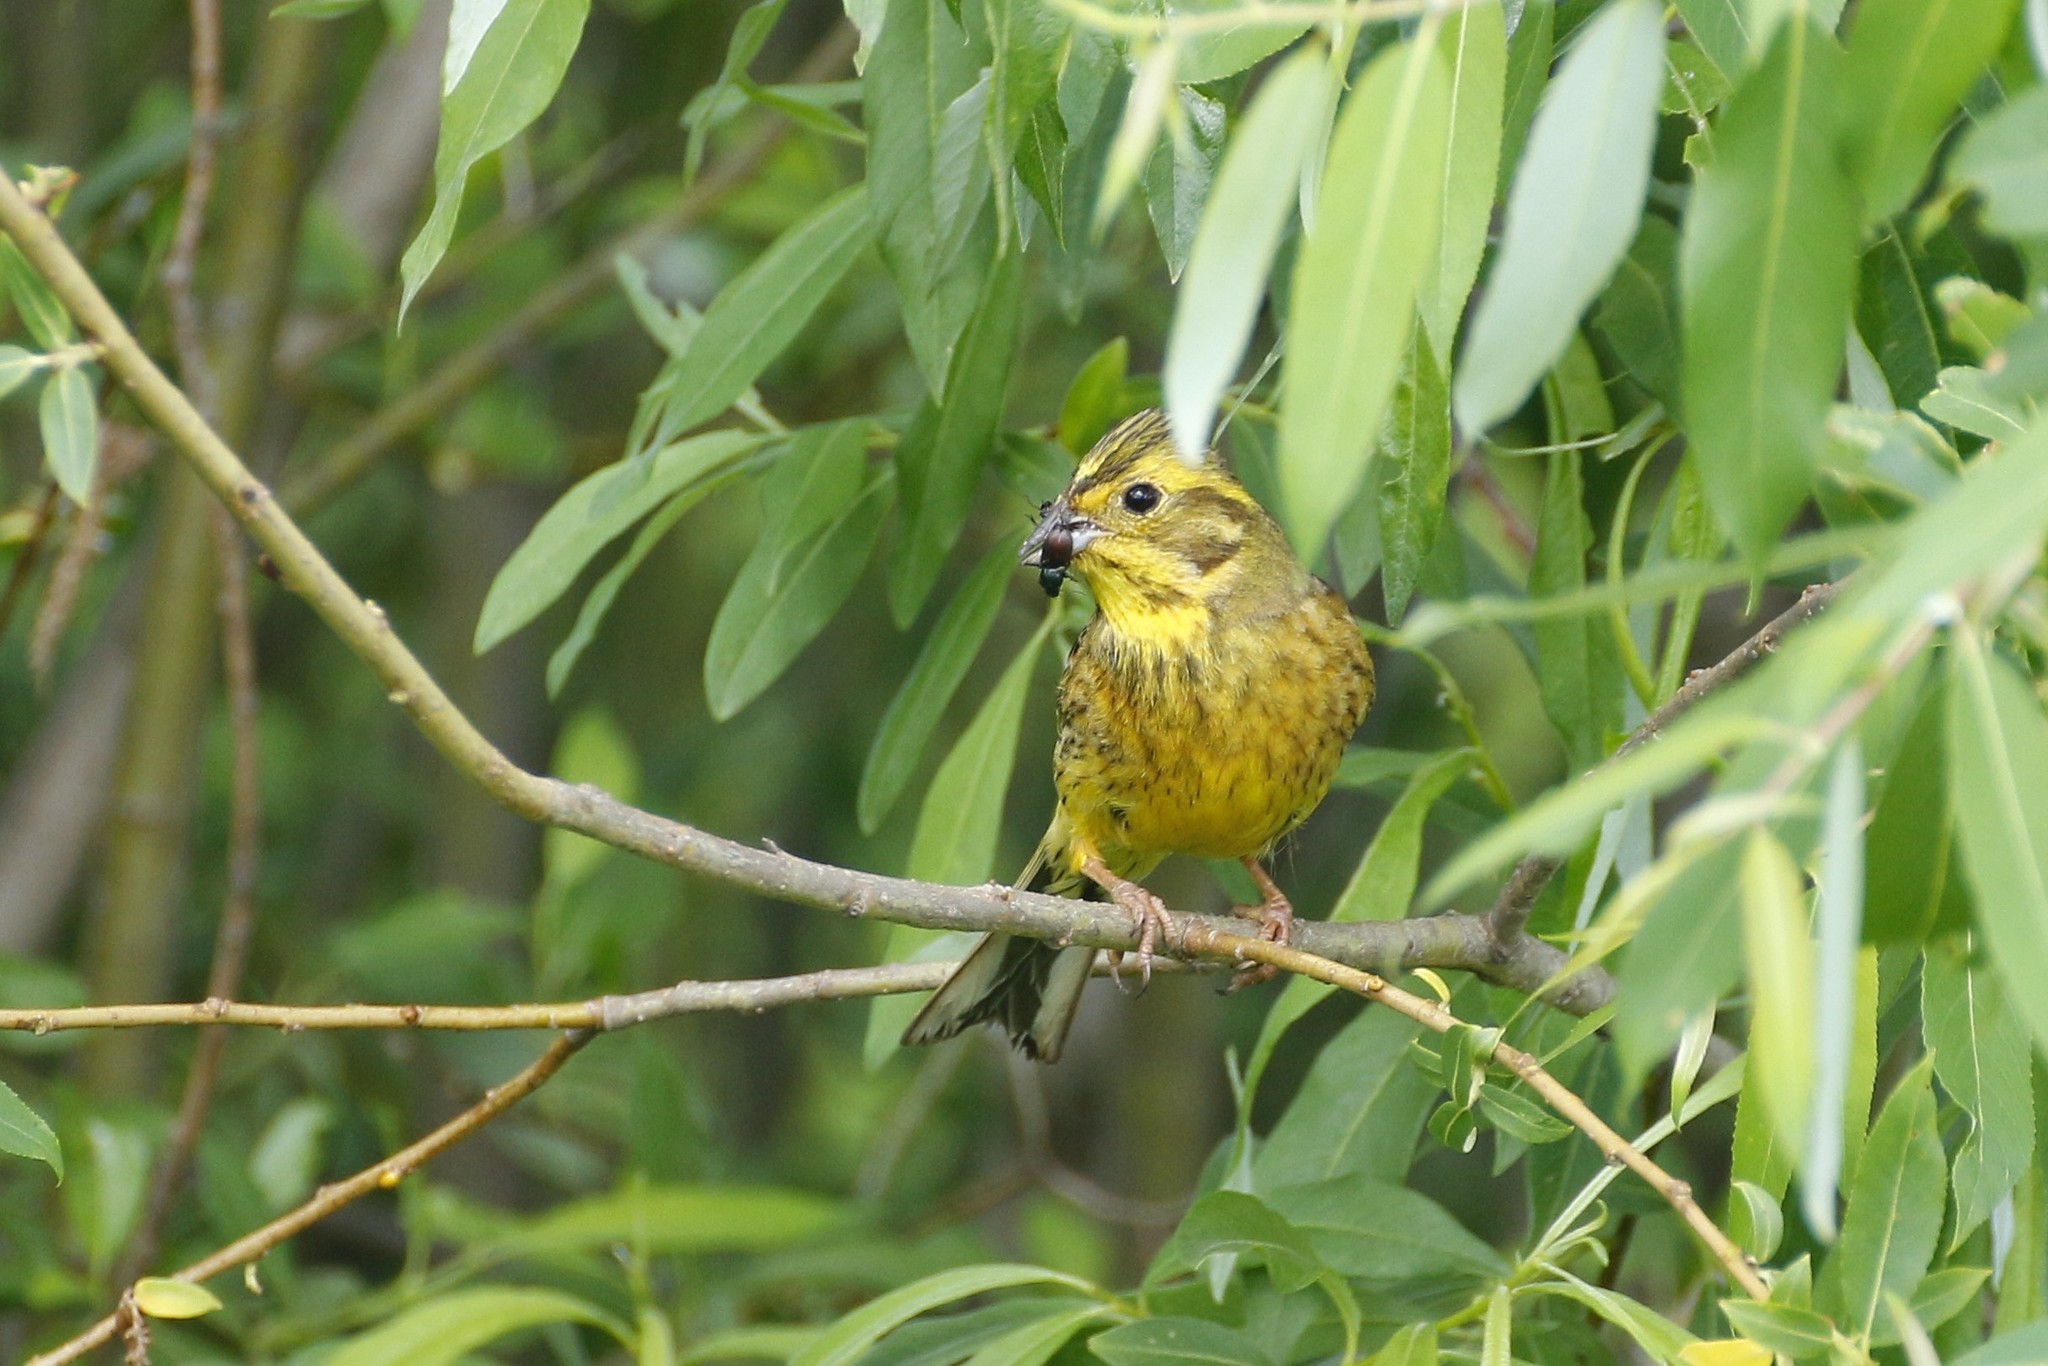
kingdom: Animalia
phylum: Chordata
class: Aves
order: Passeriformes
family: Emberizidae
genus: Emberiza
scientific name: Emberiza citrinella
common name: Yellowhammer
